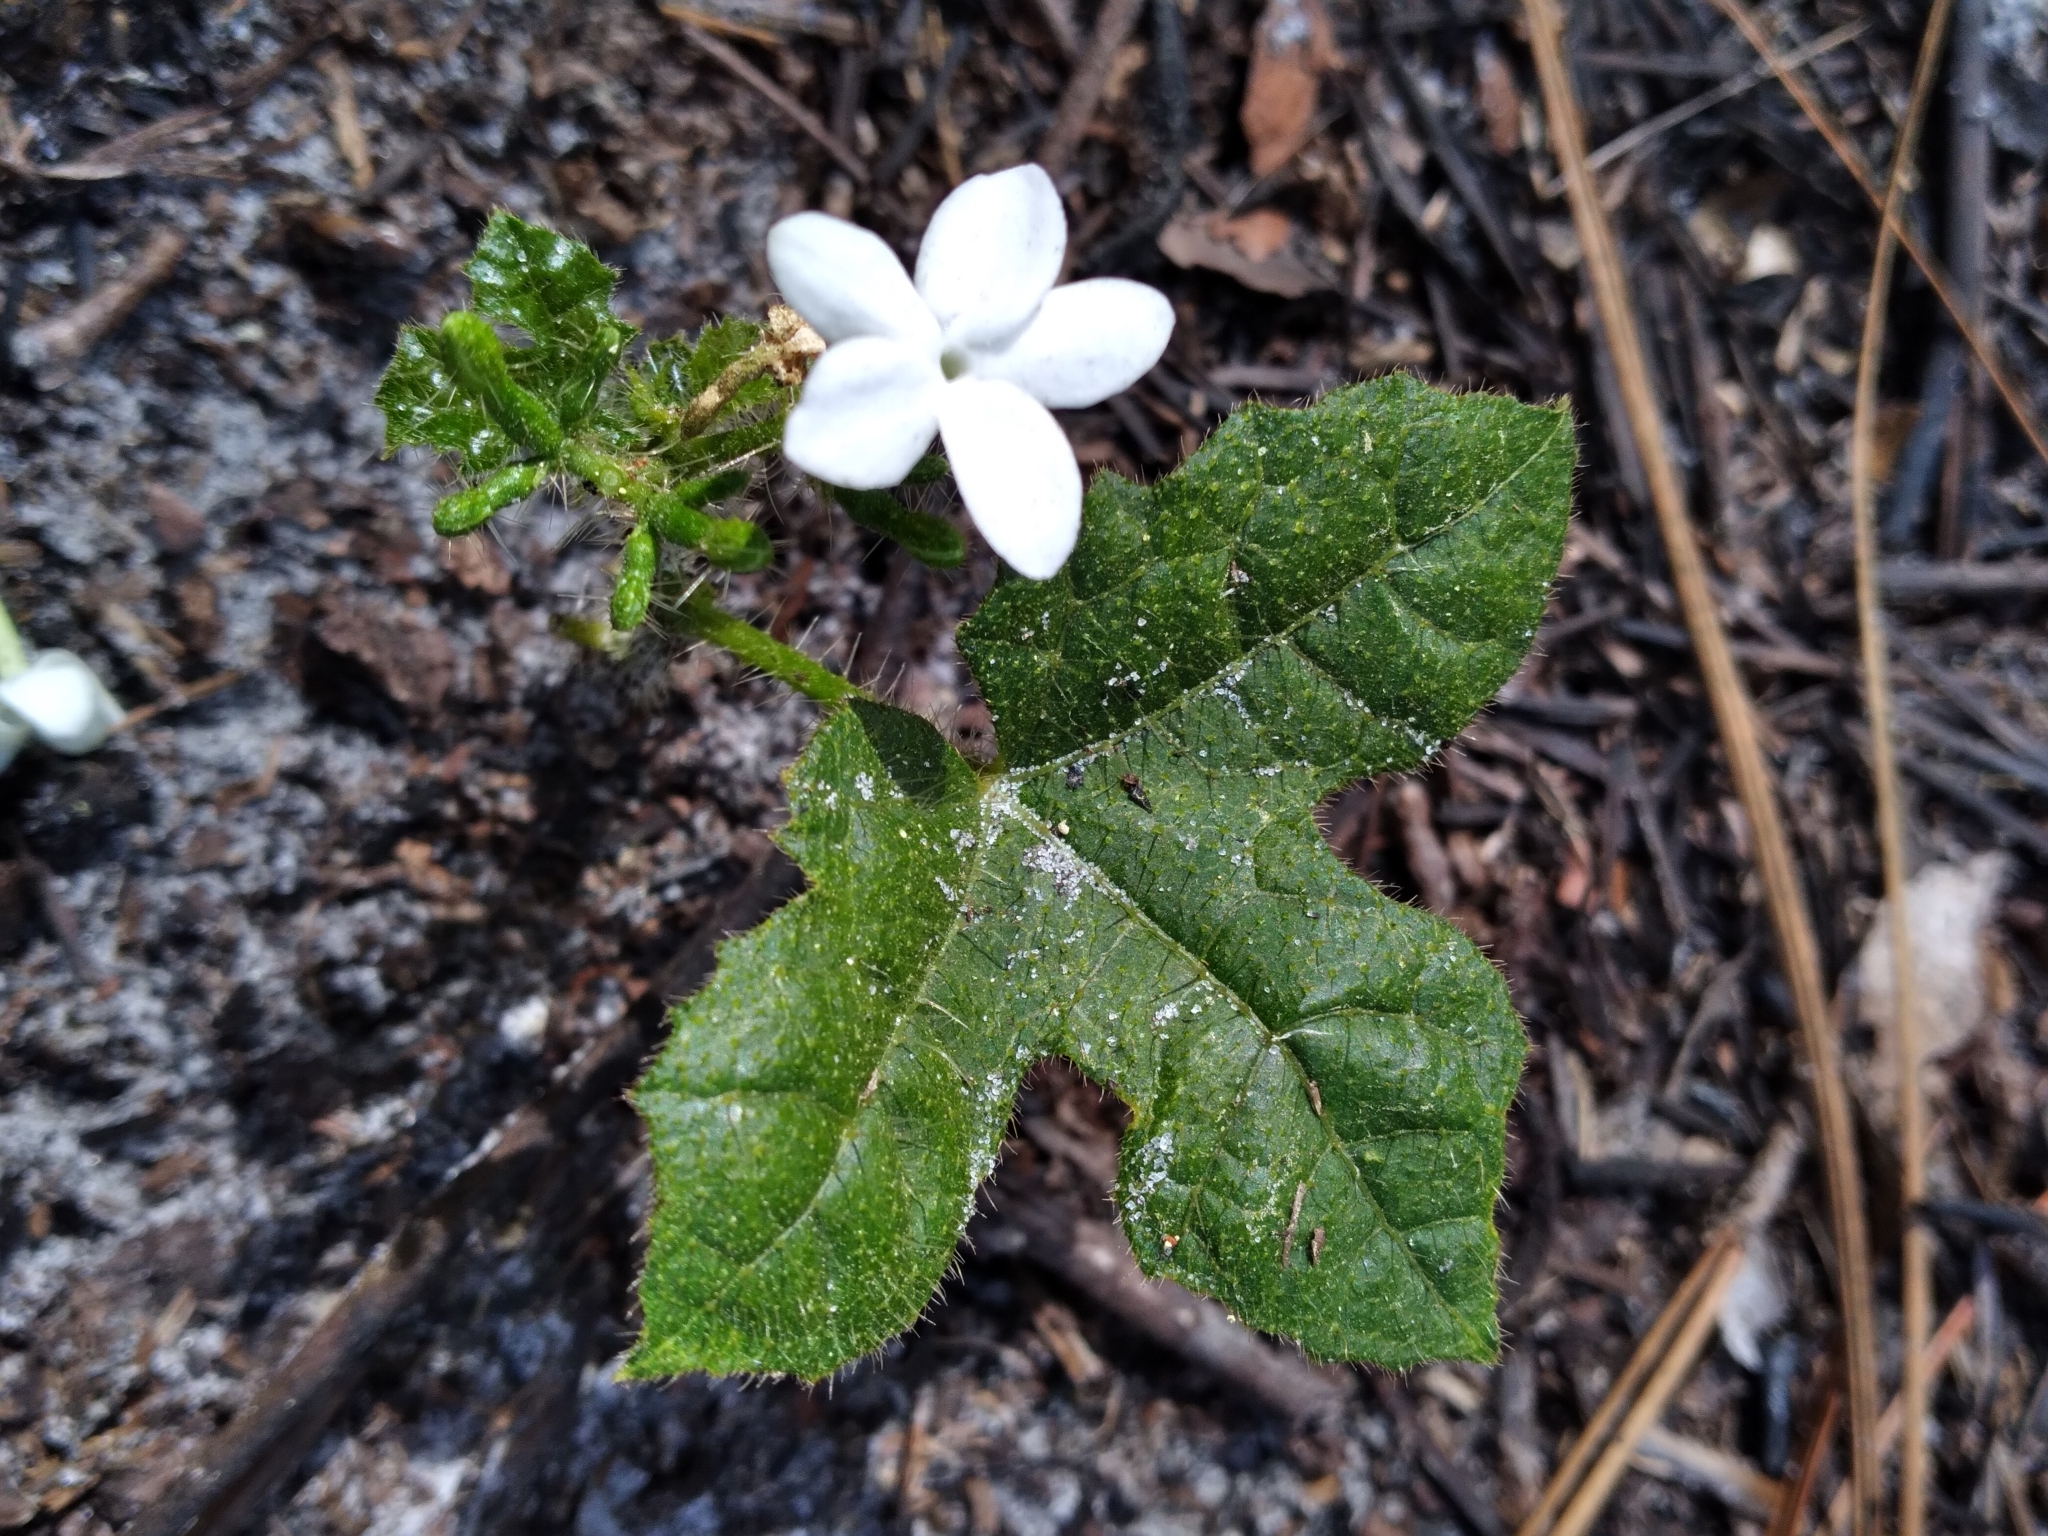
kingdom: Plantae
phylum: Tracheophyta
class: Magnoliopsida
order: Malpighiales
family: Euphorbiaceae
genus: Cnidoscolus
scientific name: Cnidoscolus stimulosus
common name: Bull-nettle
